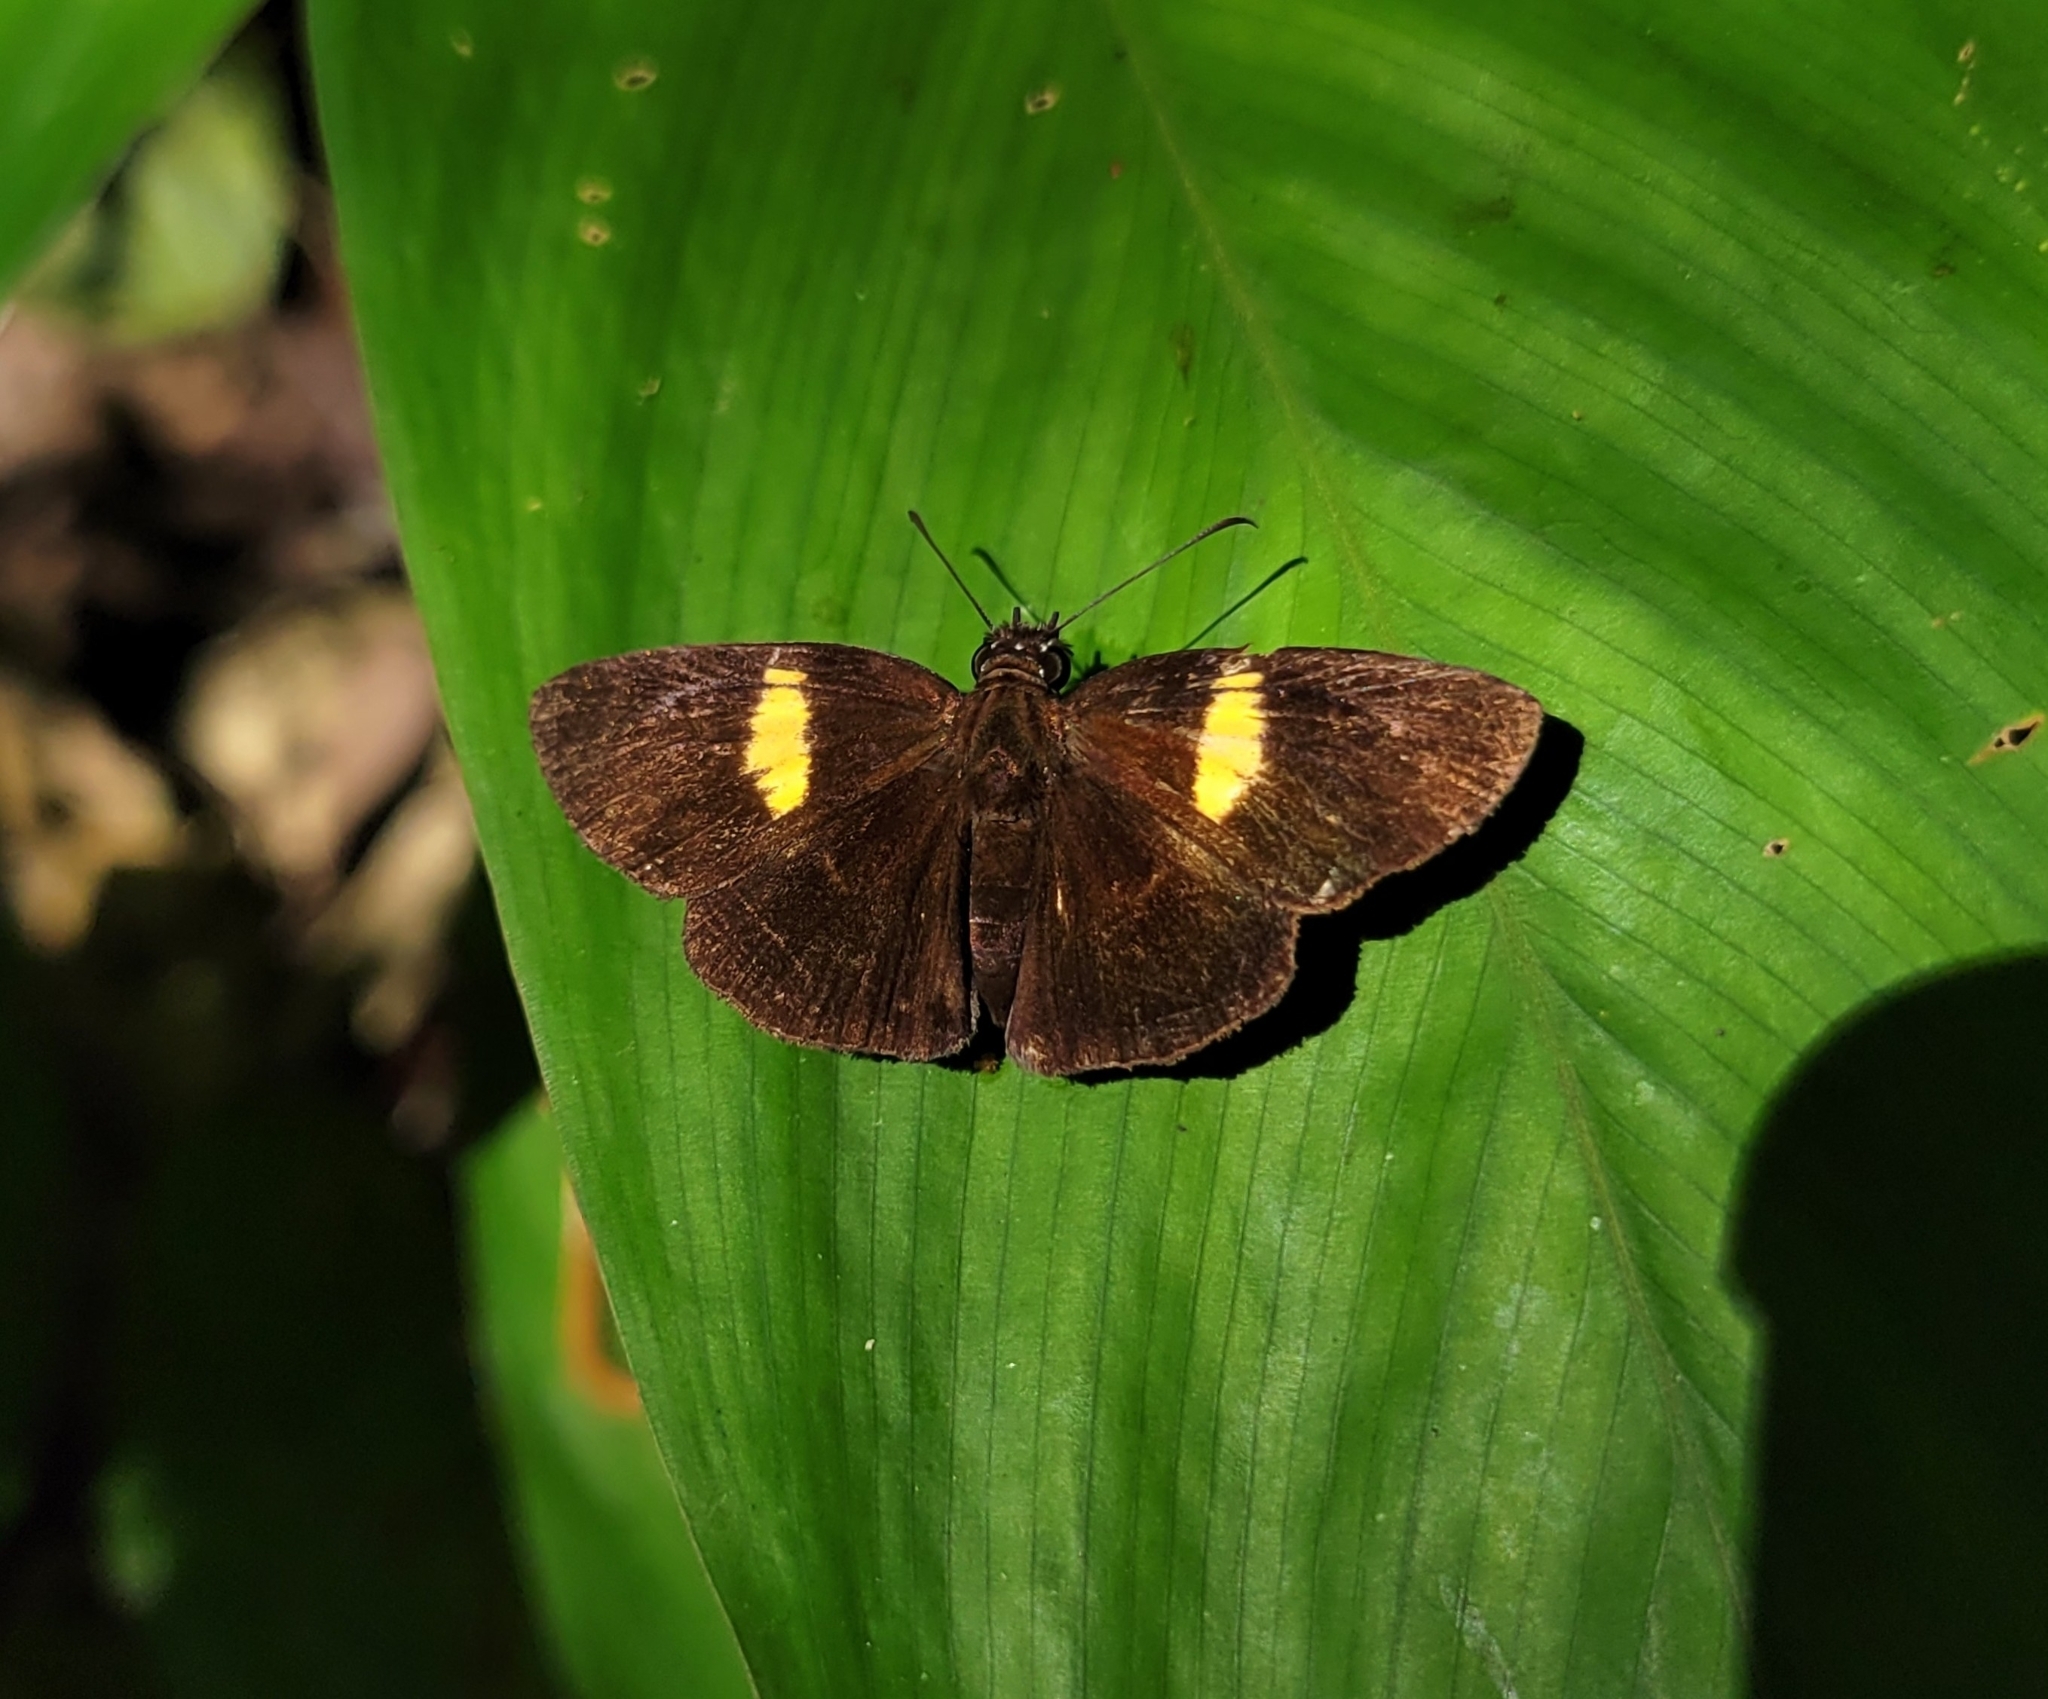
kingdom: Animalia
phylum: Arthropoda
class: Insecta
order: Lepidoptera
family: Hesperiidae
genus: Potamanaxas
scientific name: Potamanaxas flavofasciata
